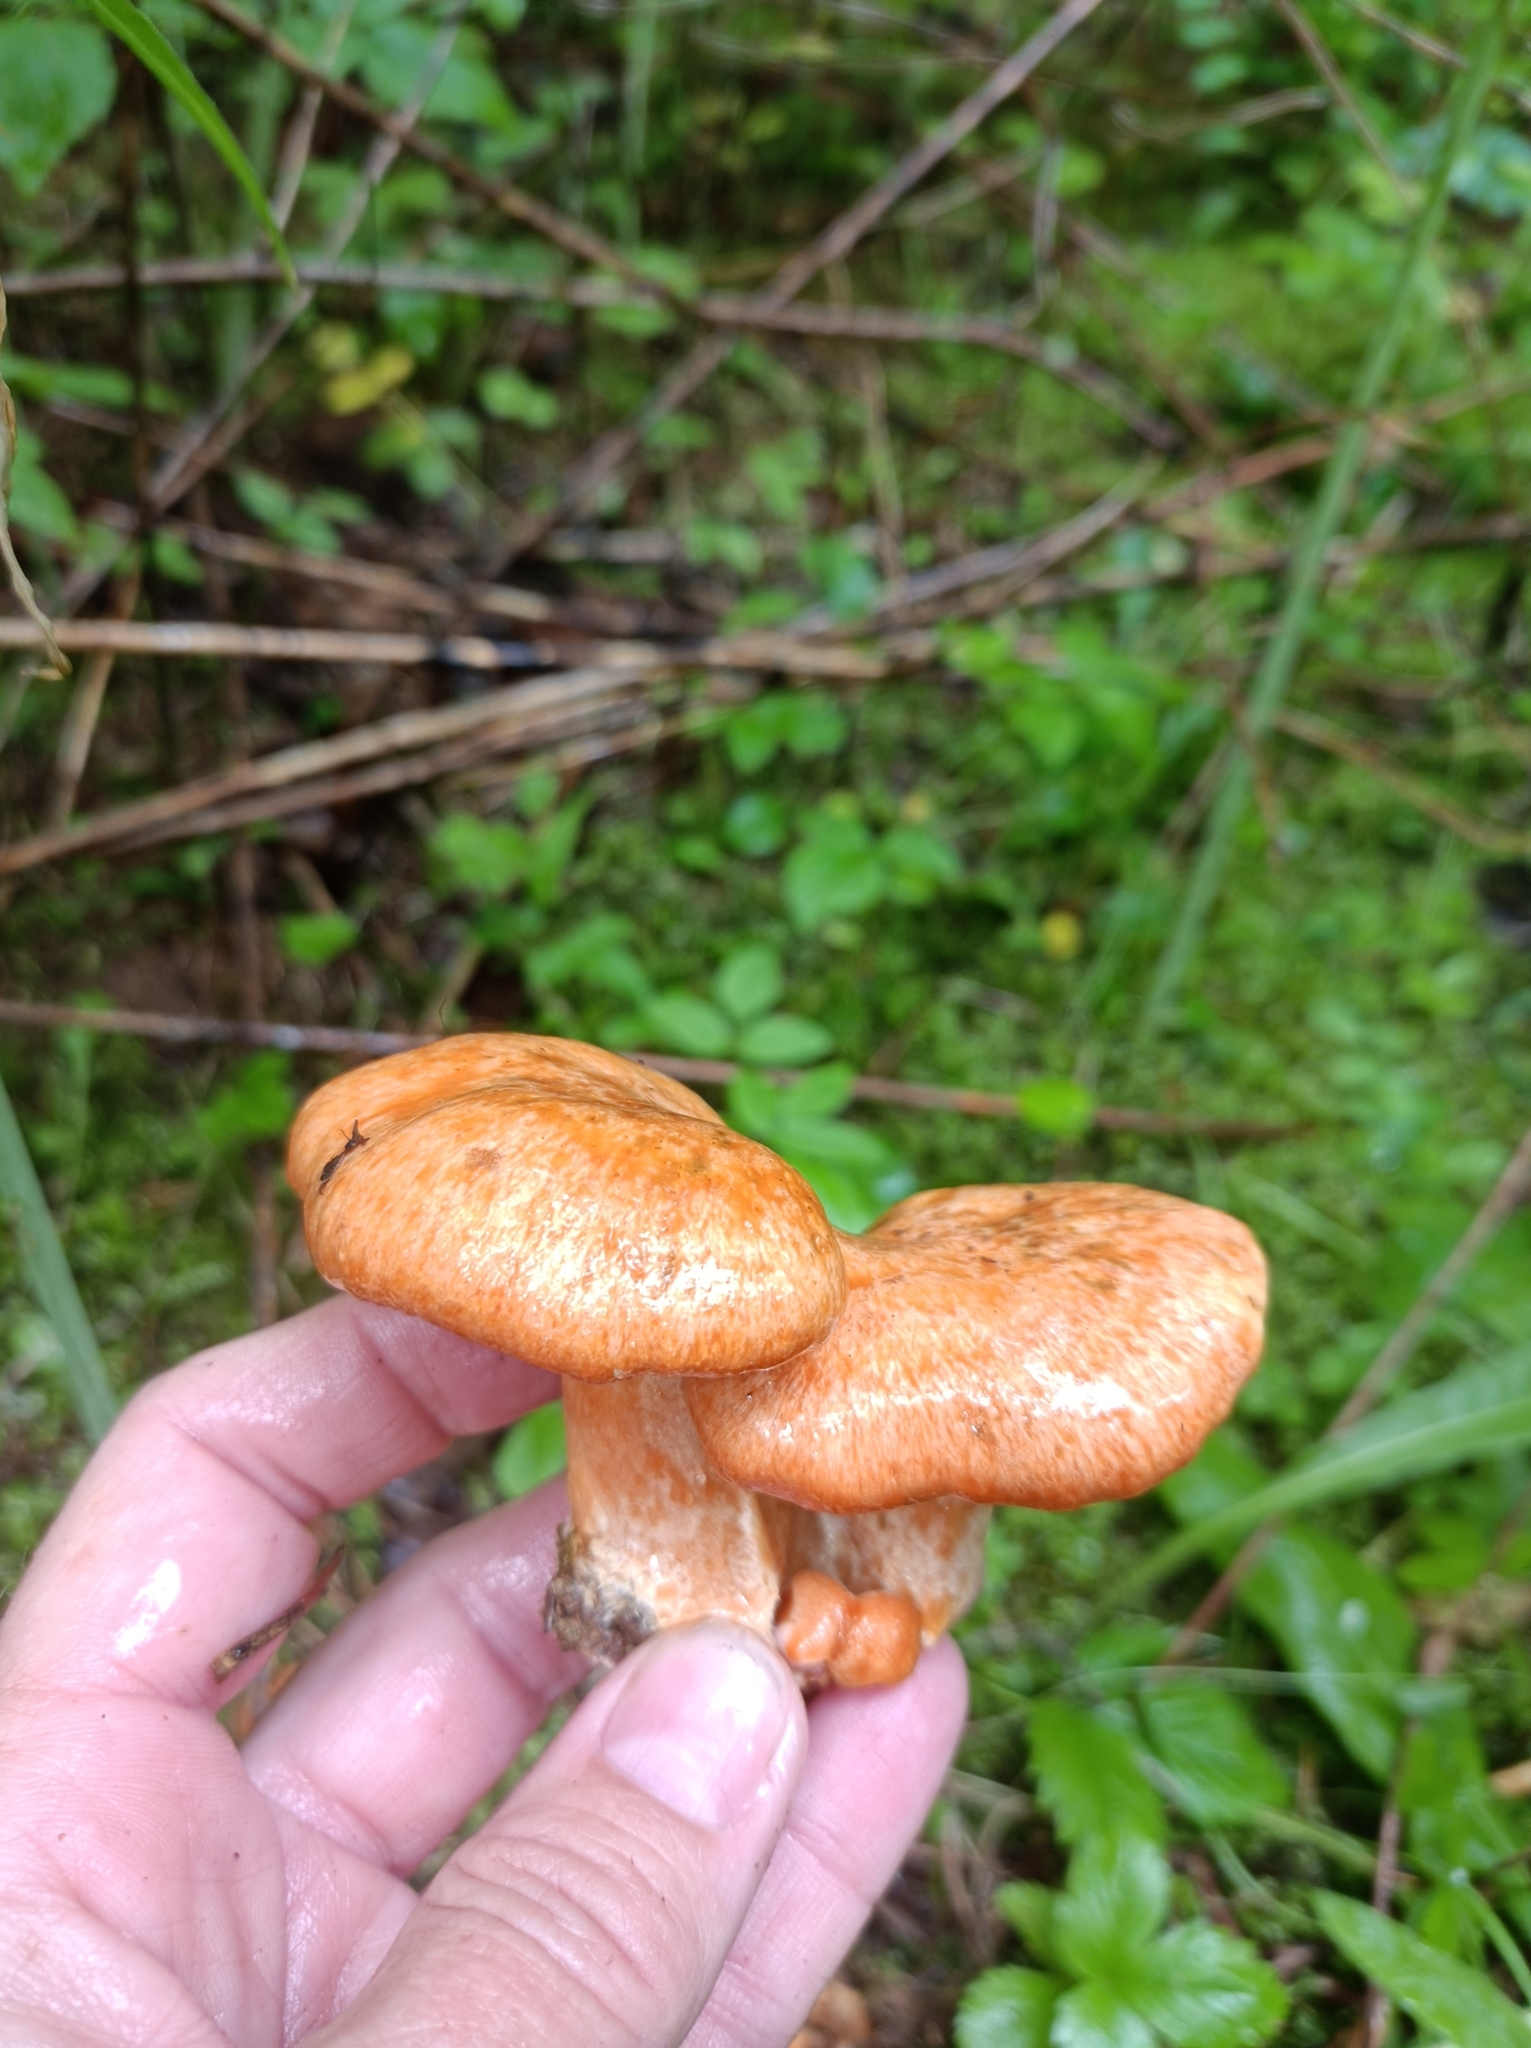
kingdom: Fungi
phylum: Basidiomycota
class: Agaricomycetes
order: Russulales
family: Russulaceae
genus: Lactarius
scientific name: Lactarius deterrimus
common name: False saffron milkcap
